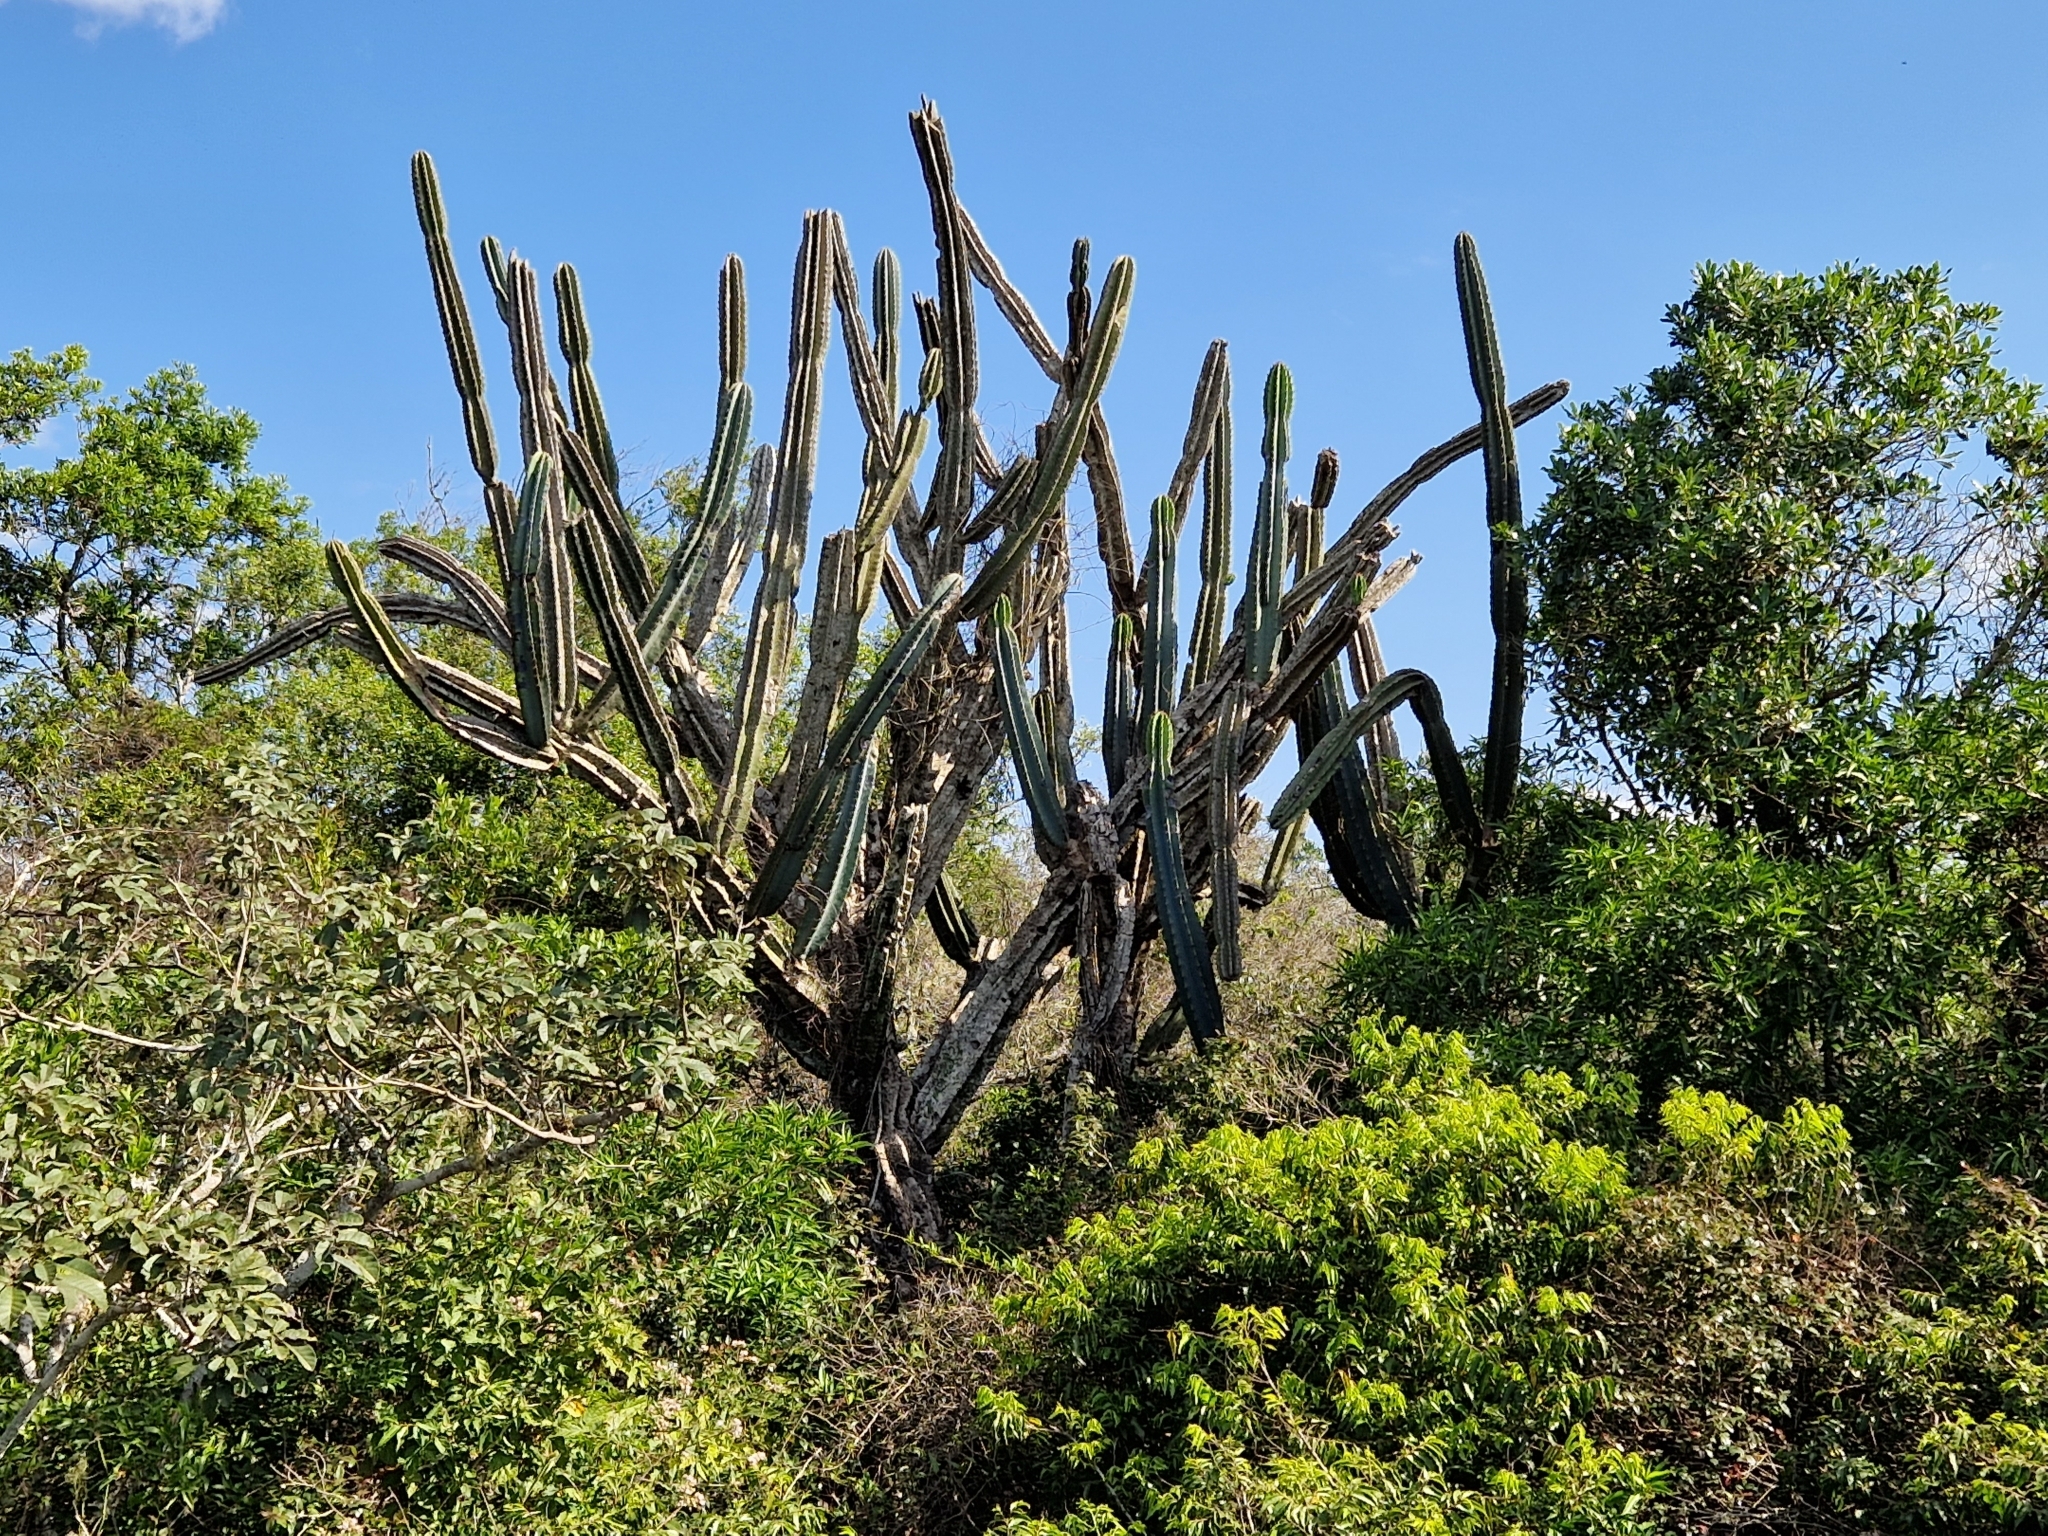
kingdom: Plantae
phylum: Tracheophyta
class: Magnoliopsida
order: Caryophyllales
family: Cactaceae
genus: Cereus
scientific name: Cereus stenogonus
